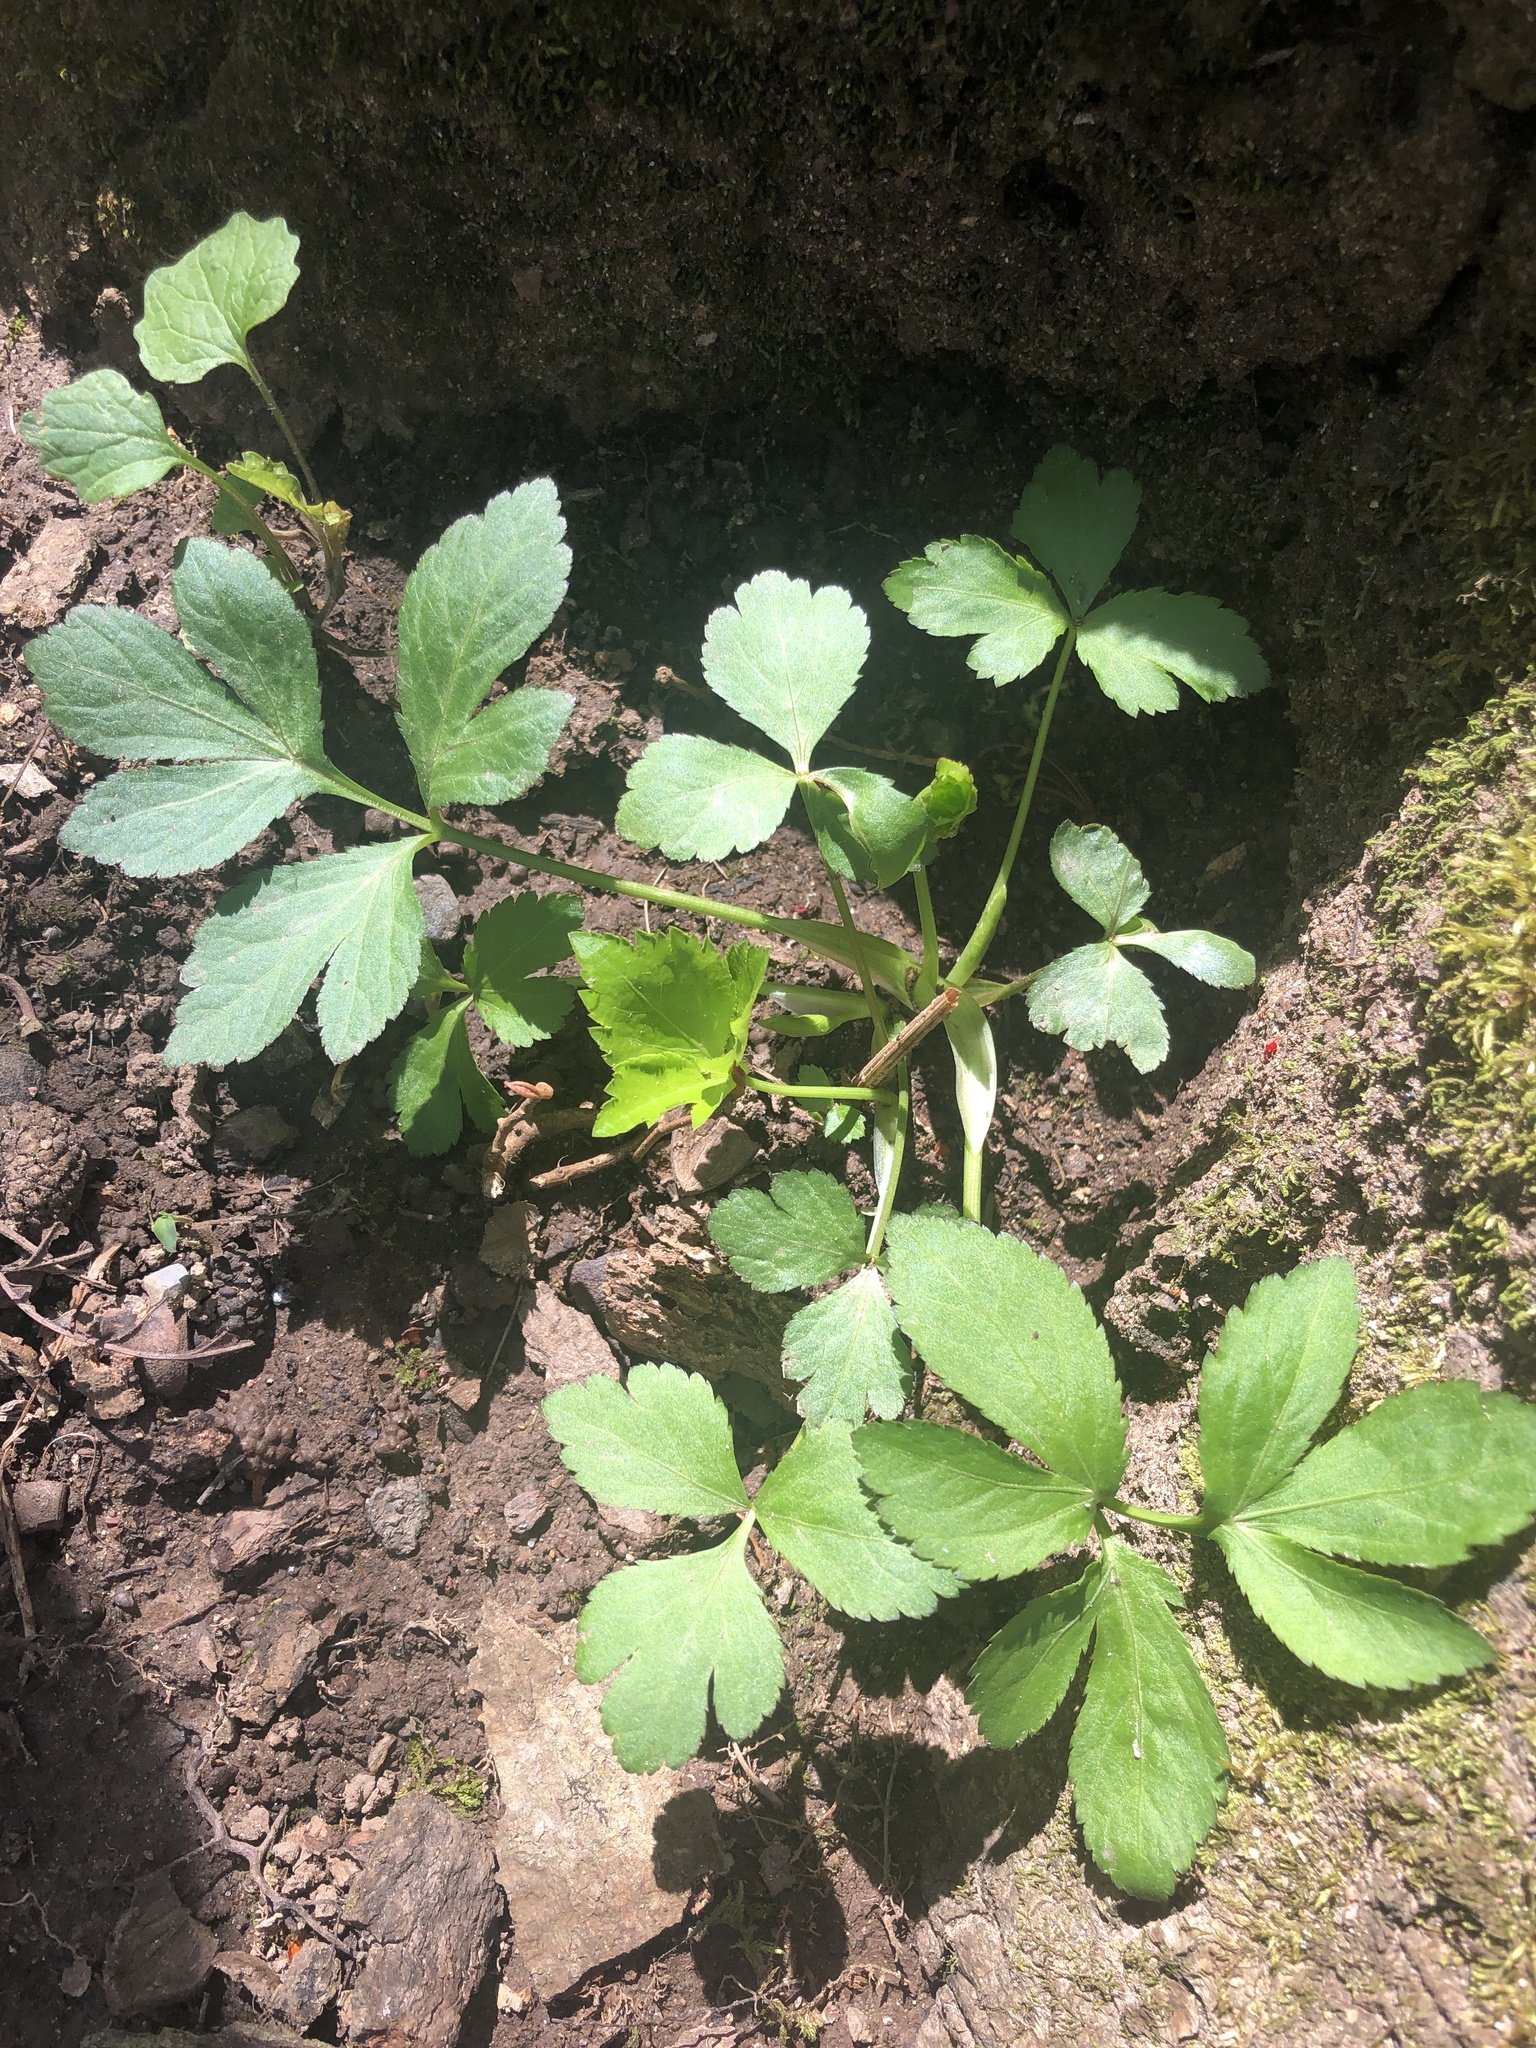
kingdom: Plantae
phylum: Tracheophyta
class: Magnoliopsida
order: Apiales
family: Apiaceae
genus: Cryptotaenia
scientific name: Cryptotaenia canadensis
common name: Honewort
